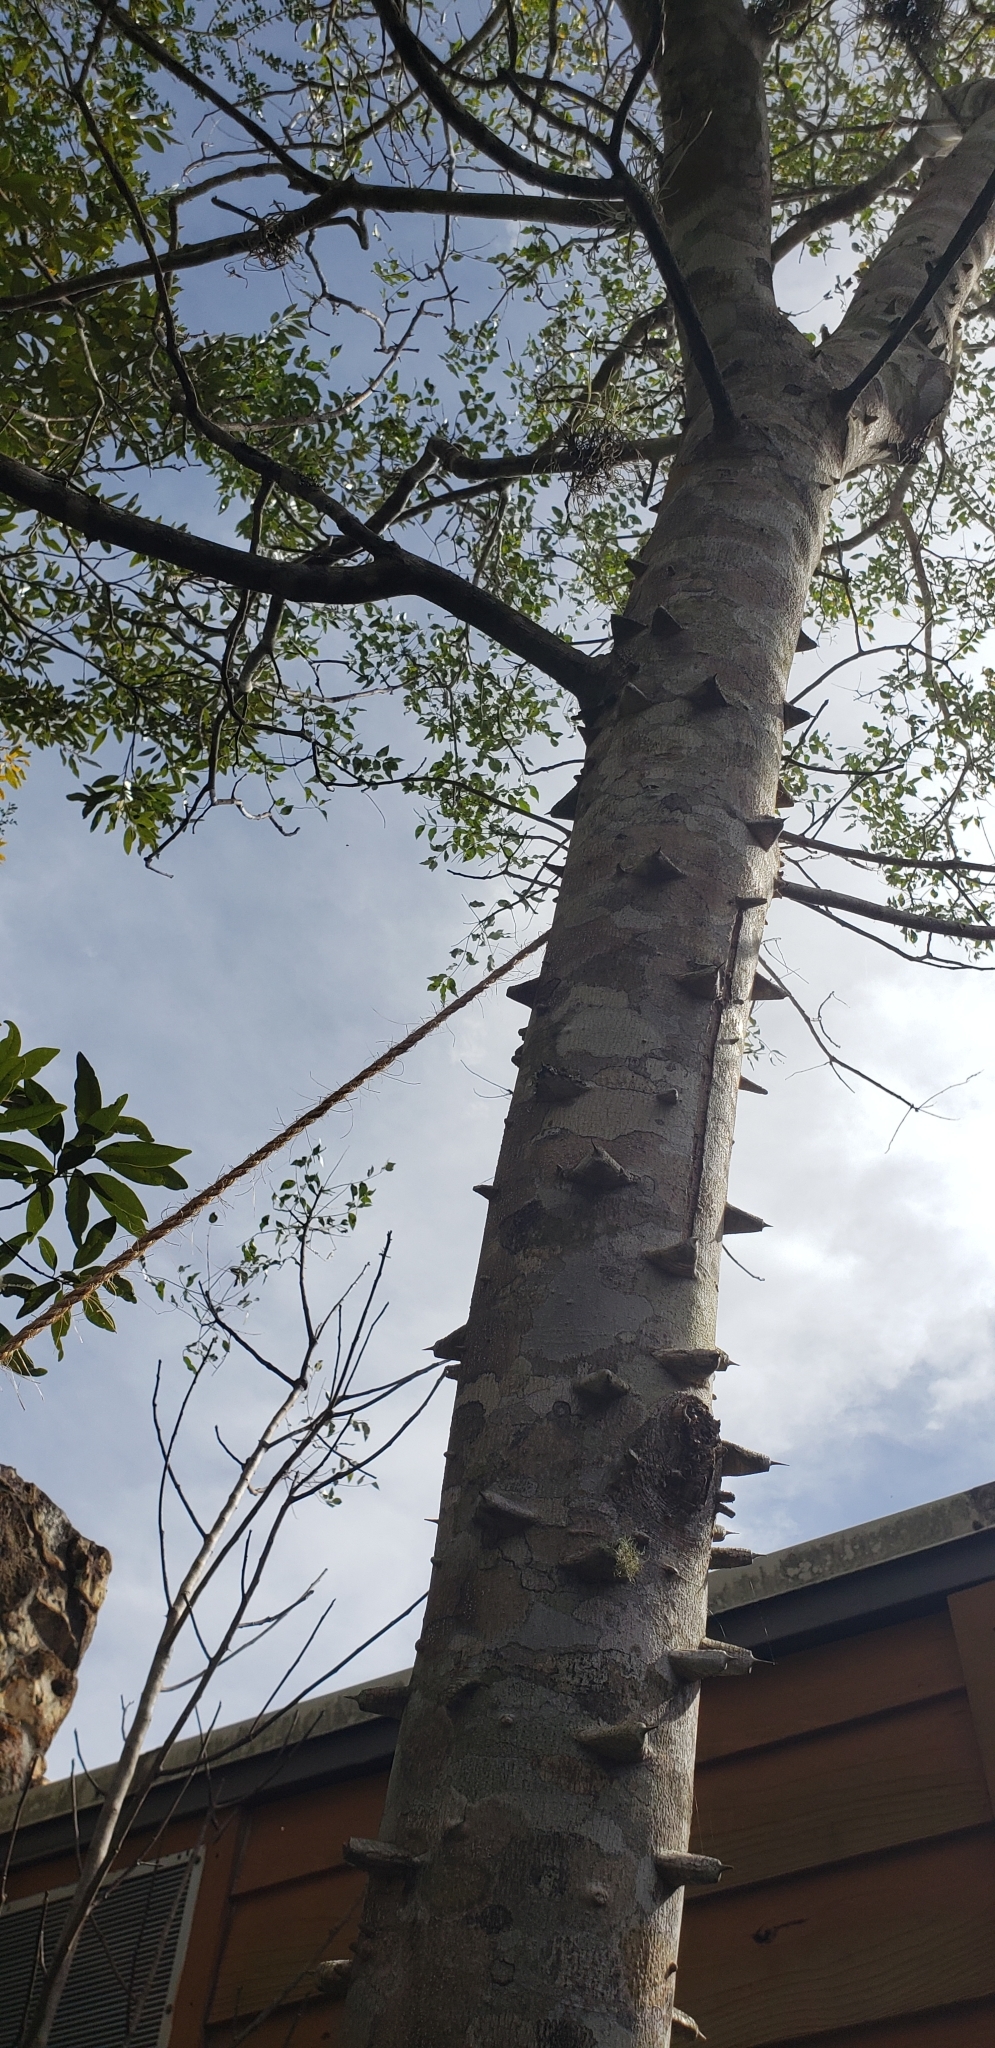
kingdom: Plantae
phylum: Tracheophyta
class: Magnoliopsida
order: Sapindales
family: Rutaceae
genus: Zanthoxylum
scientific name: Zanthoxylum clava-herculis
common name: Hercules'-club
